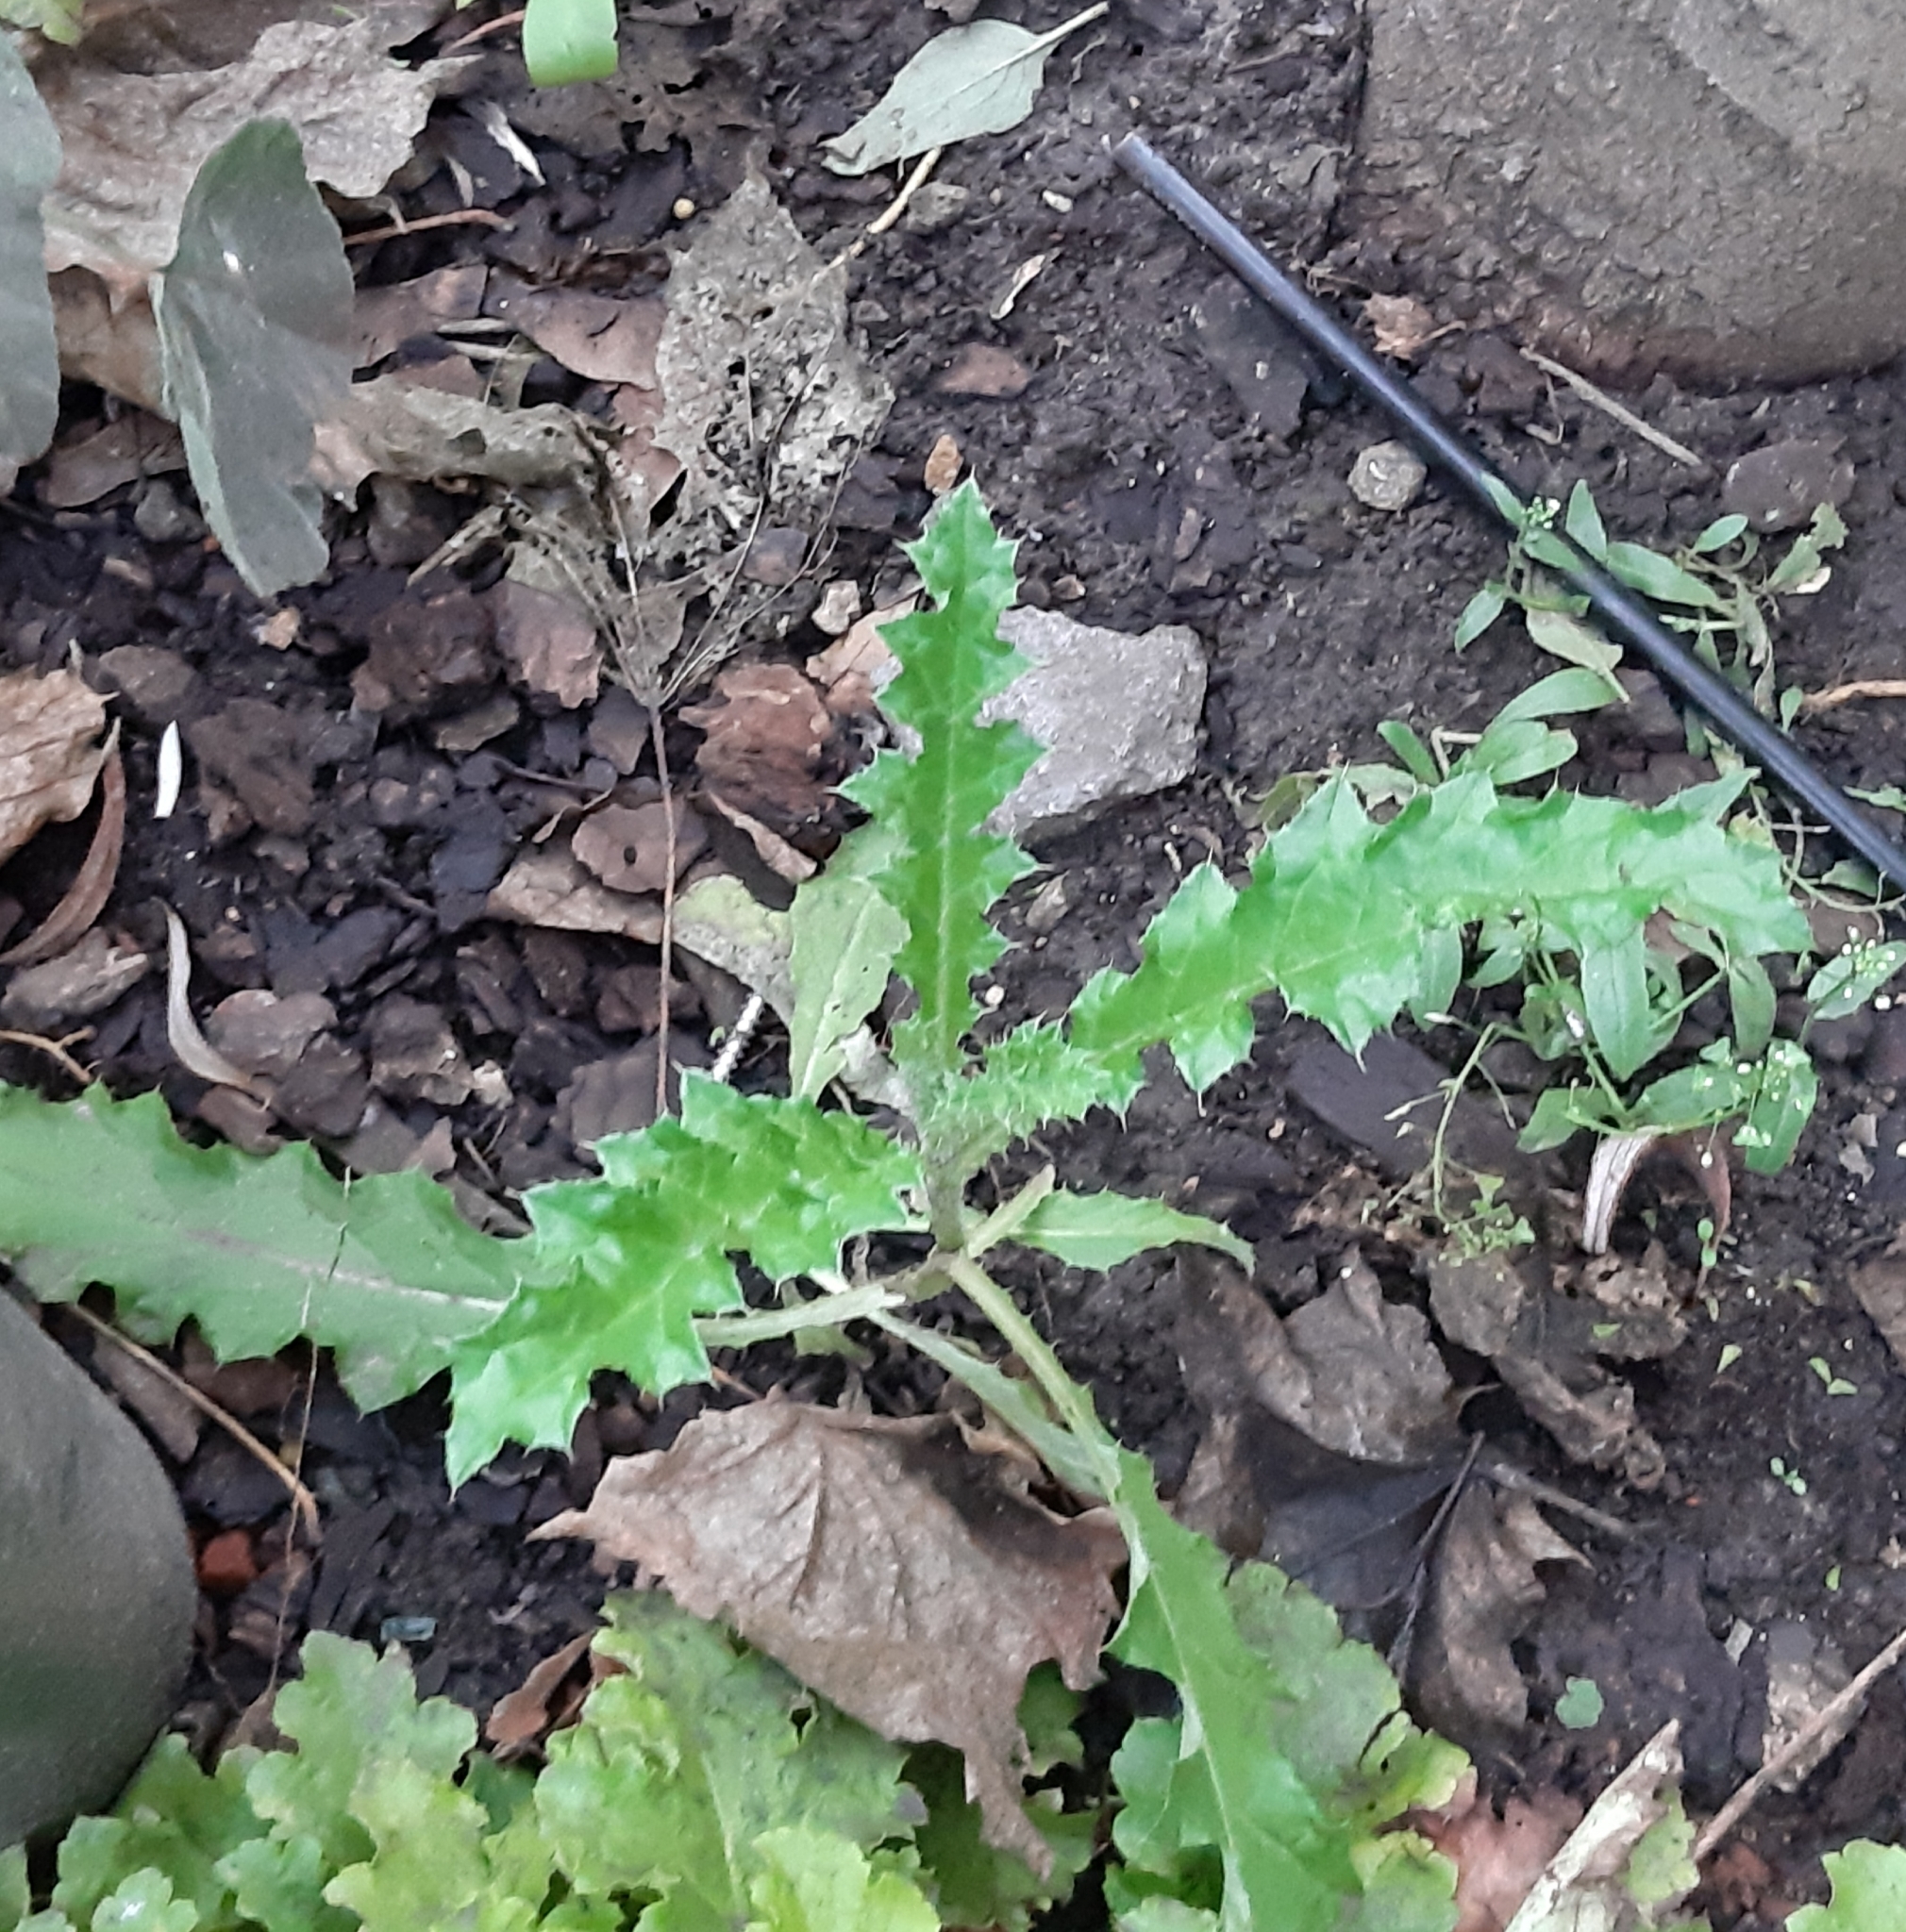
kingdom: Plantae
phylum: Tracheophyta
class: Magnoliopsida
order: Asterales
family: Asteraceae
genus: Cirsium
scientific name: Cirsium arvense
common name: Creeping thistle
